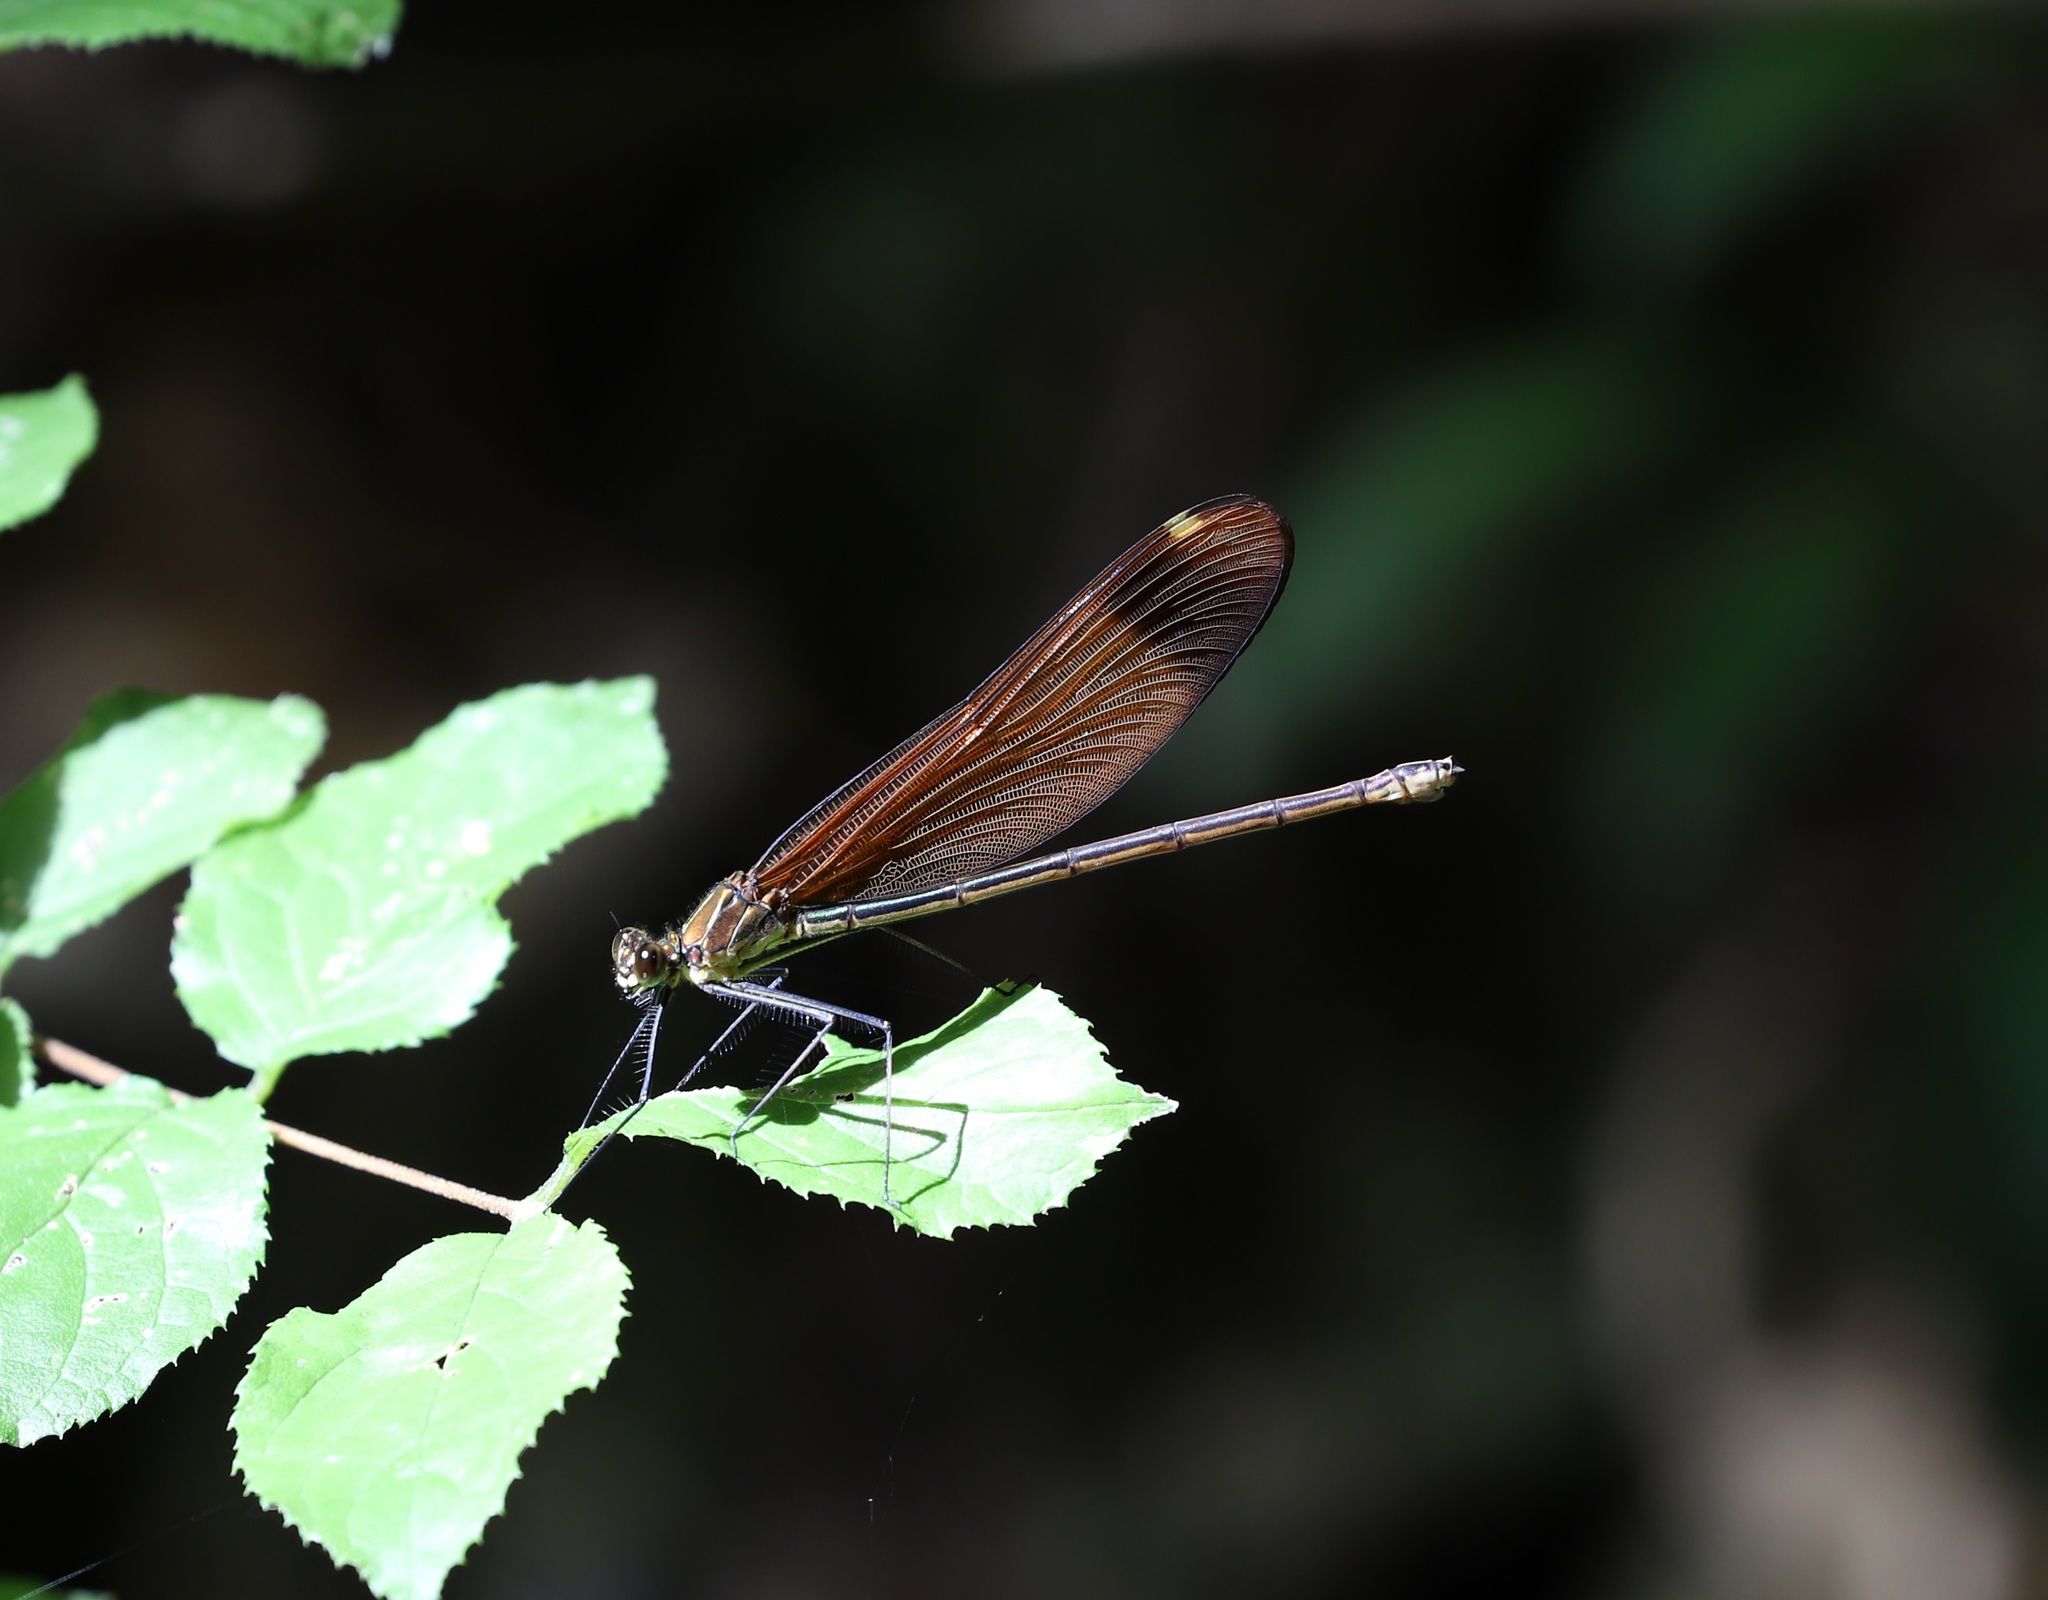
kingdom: Animalia
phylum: Arthropoda
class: Insecta
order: Odonata
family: Calopterygidae
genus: Calopteryx
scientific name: Calopteryx cornelia
